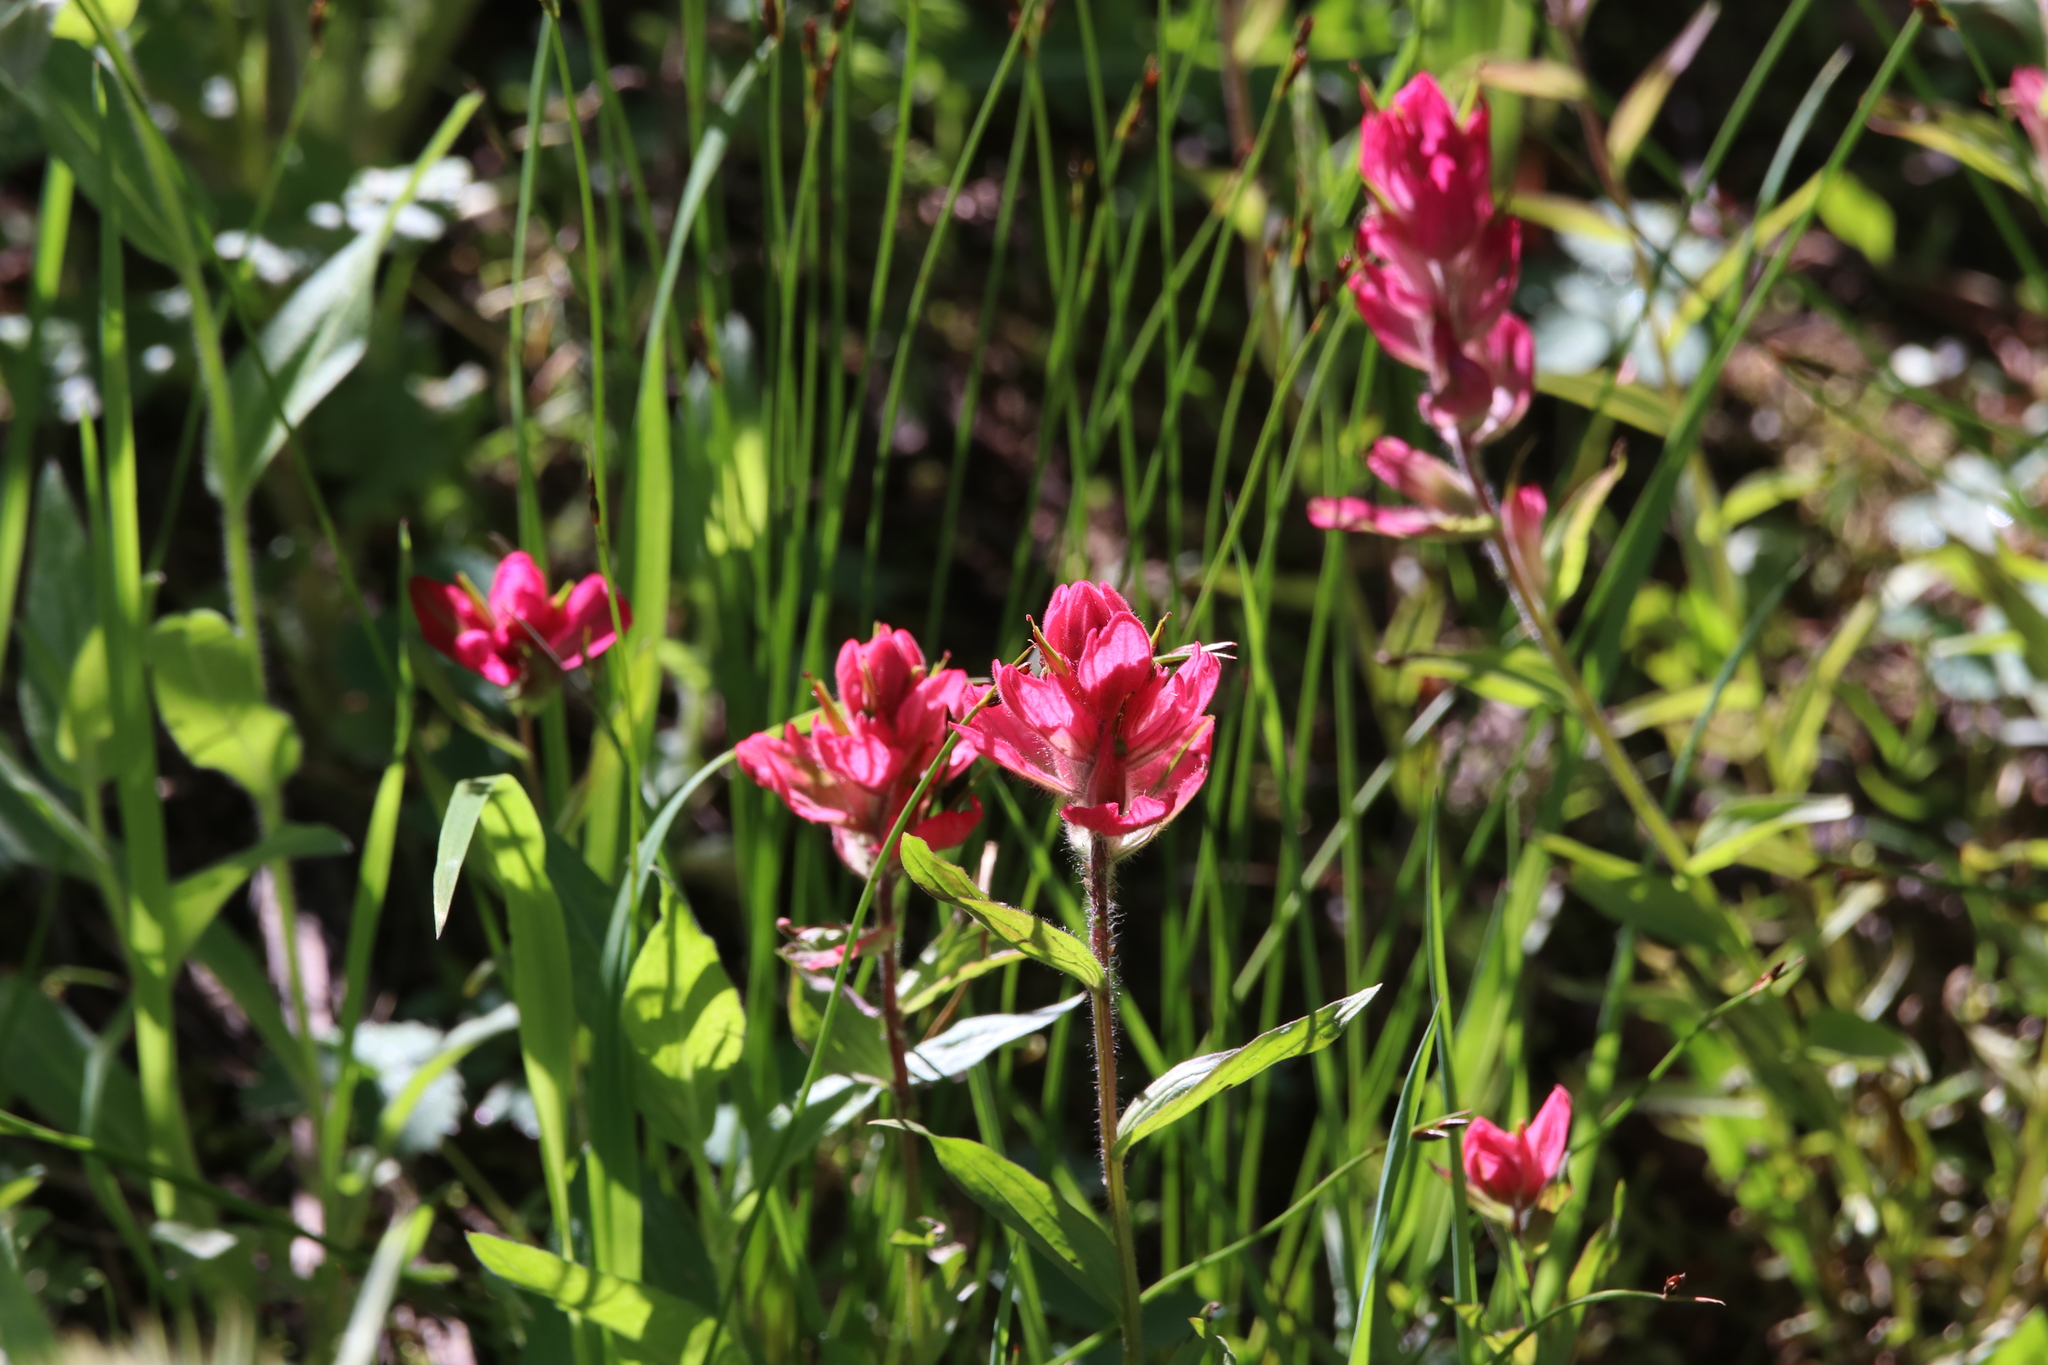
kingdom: Plantae
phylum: Tracheophyta
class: Magnoliopsida
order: Lamiales
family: Orobanchaceae
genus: Castilleja
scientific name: Castilleja rhexifolia
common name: Rocky mountain paintbrush
